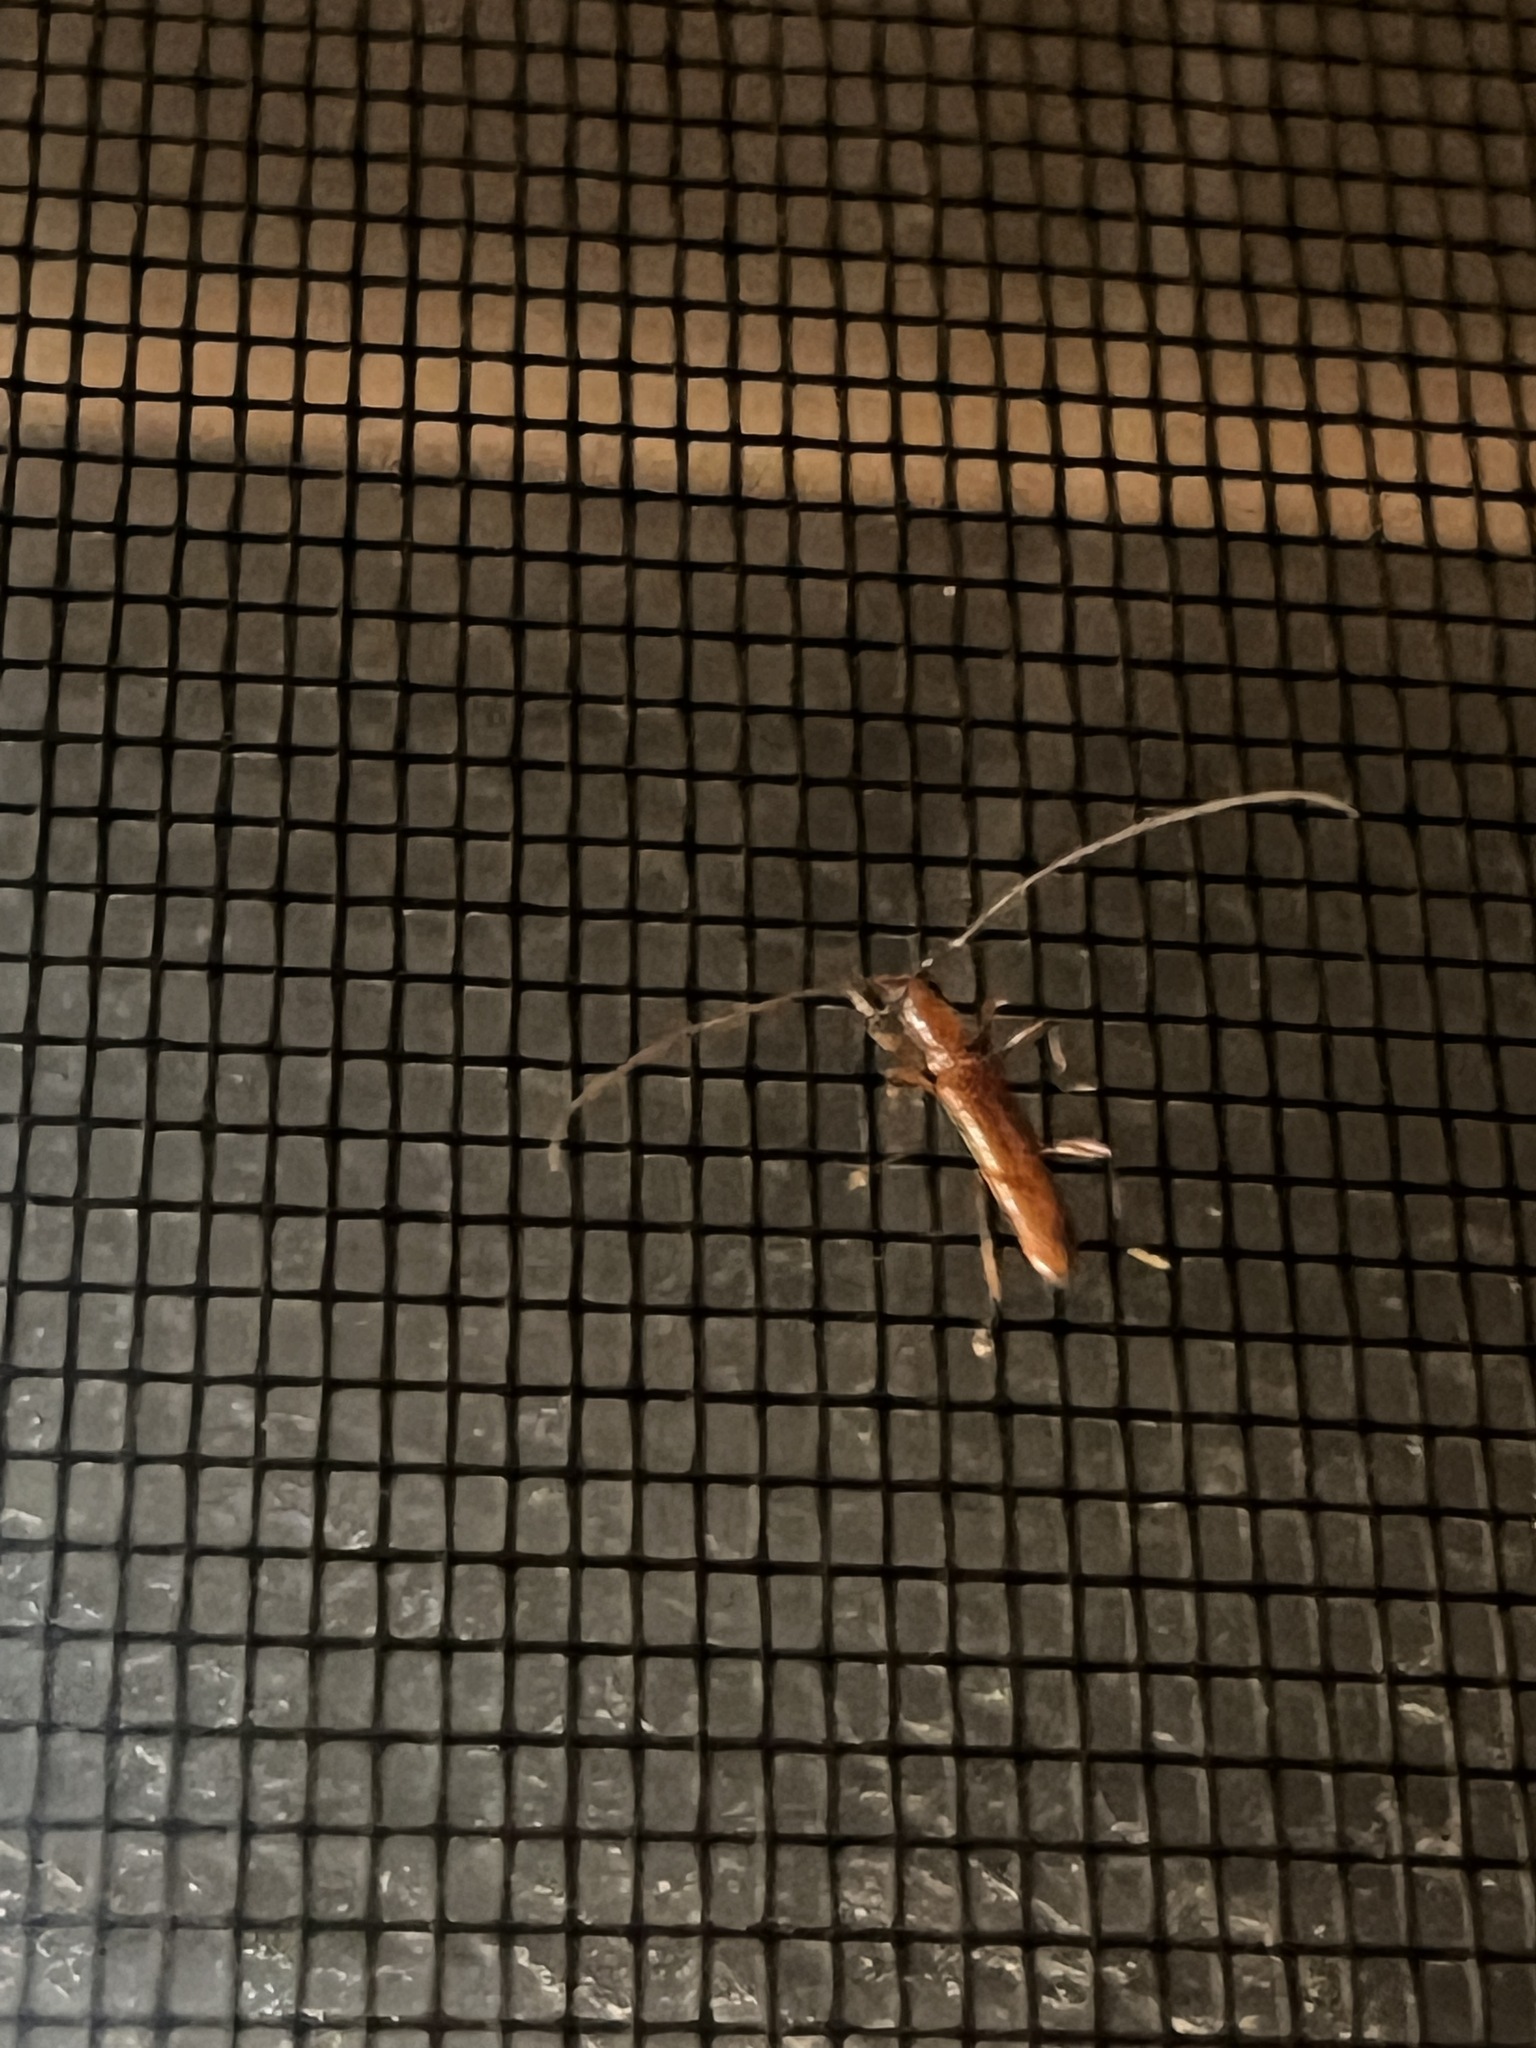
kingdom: Animalia
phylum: Arthropoda
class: Insecta
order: Coleoptera
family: Cerambycidae
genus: Psyrassa
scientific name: Psyrassa unicolor
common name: Branch pruner
